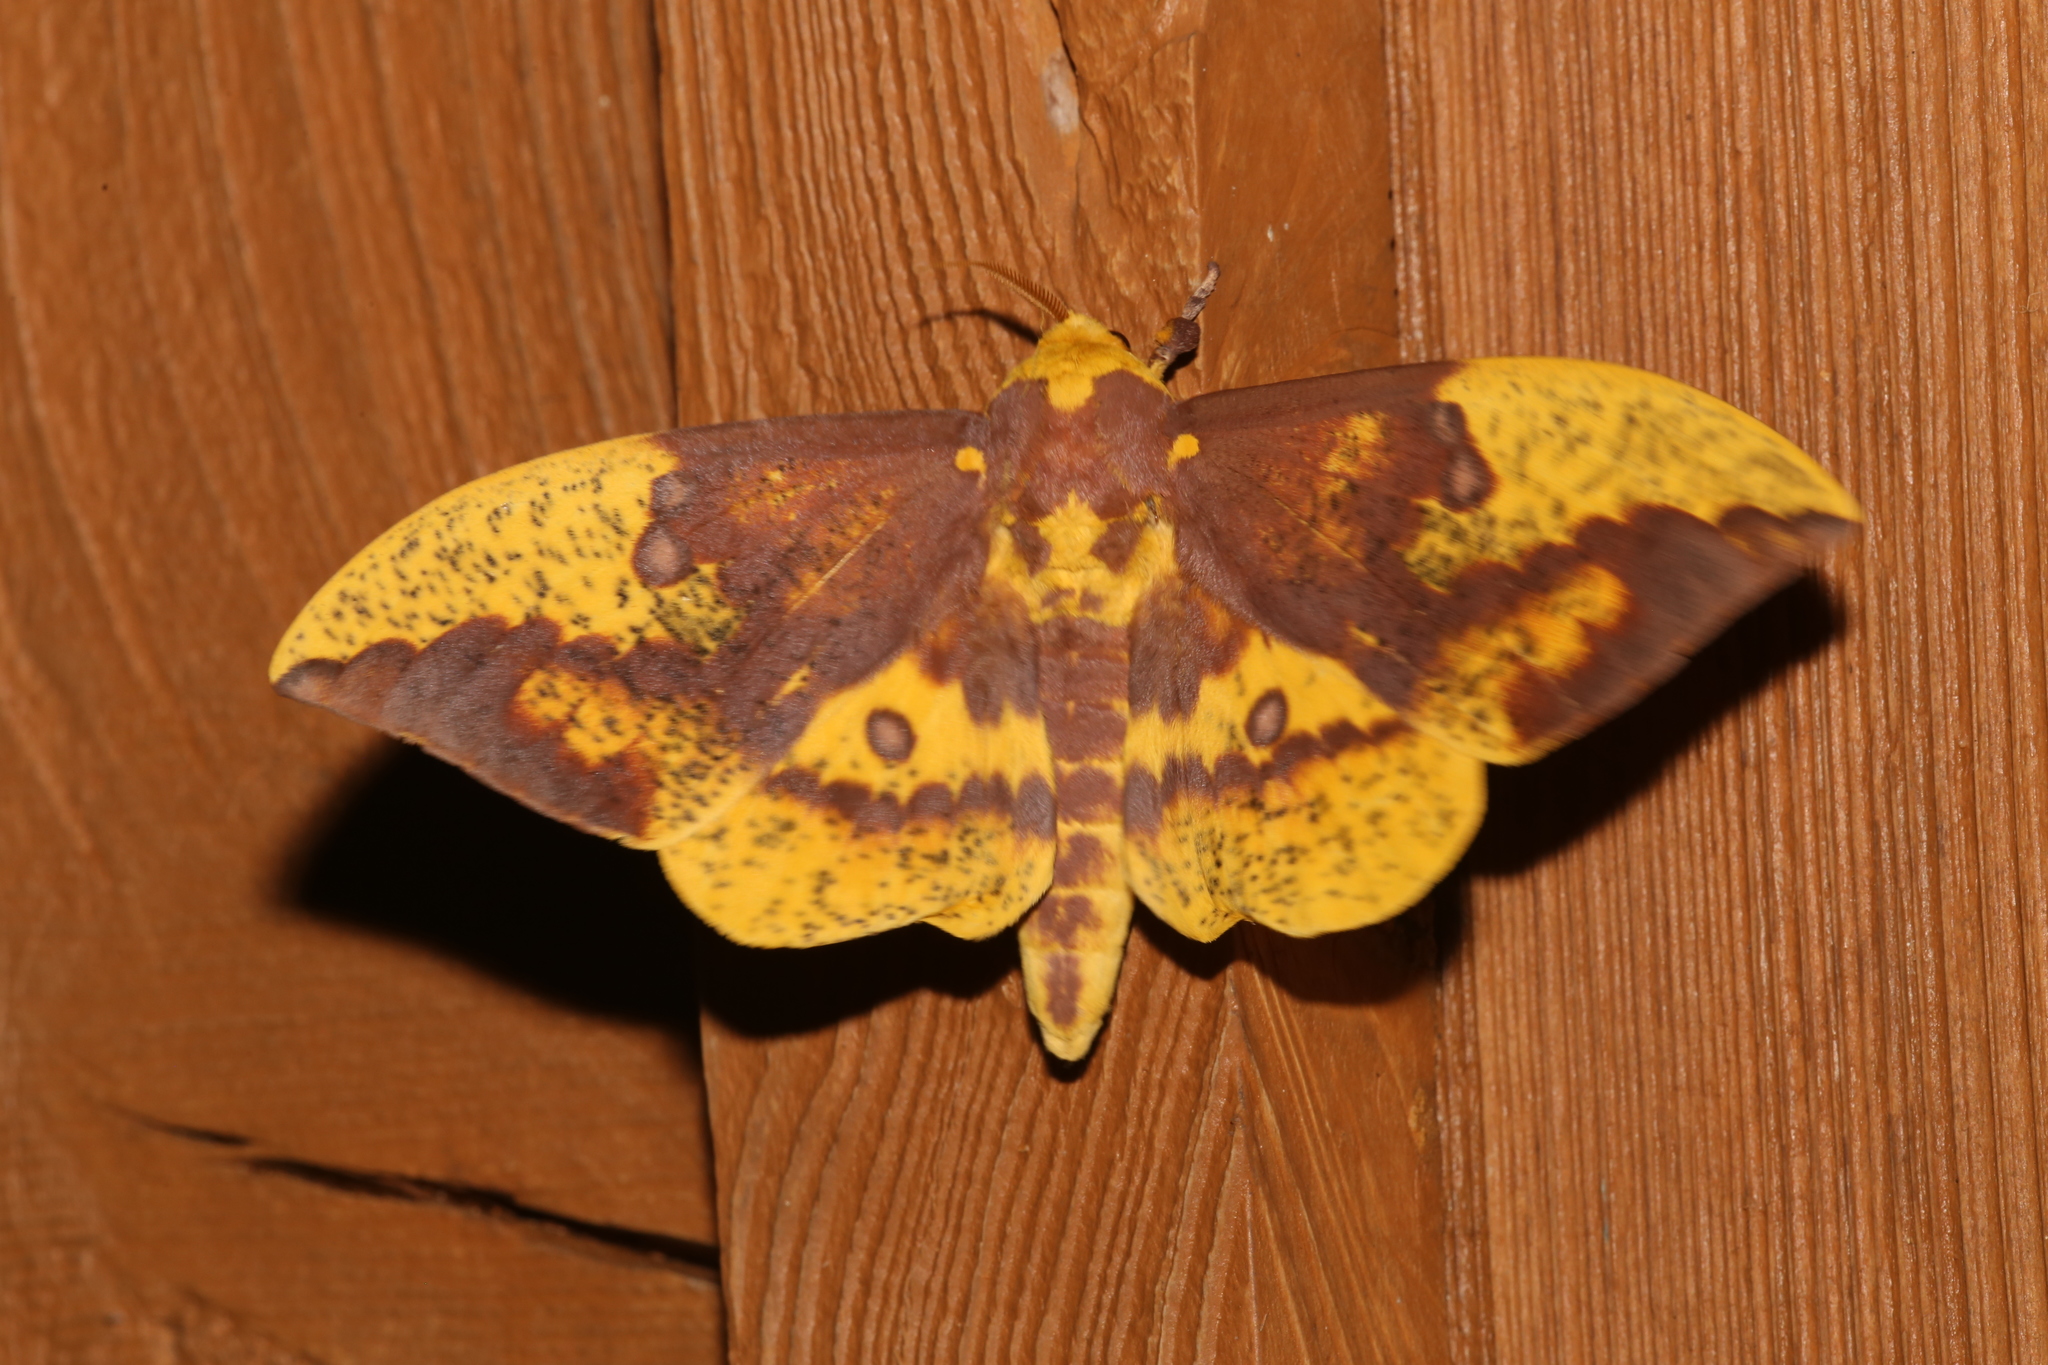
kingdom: Animalia
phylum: Arthropoda
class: Insecta
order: Lepidoptera
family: Saturniidae
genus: Eacles
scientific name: Eacles imperialis
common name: Imperial moth
